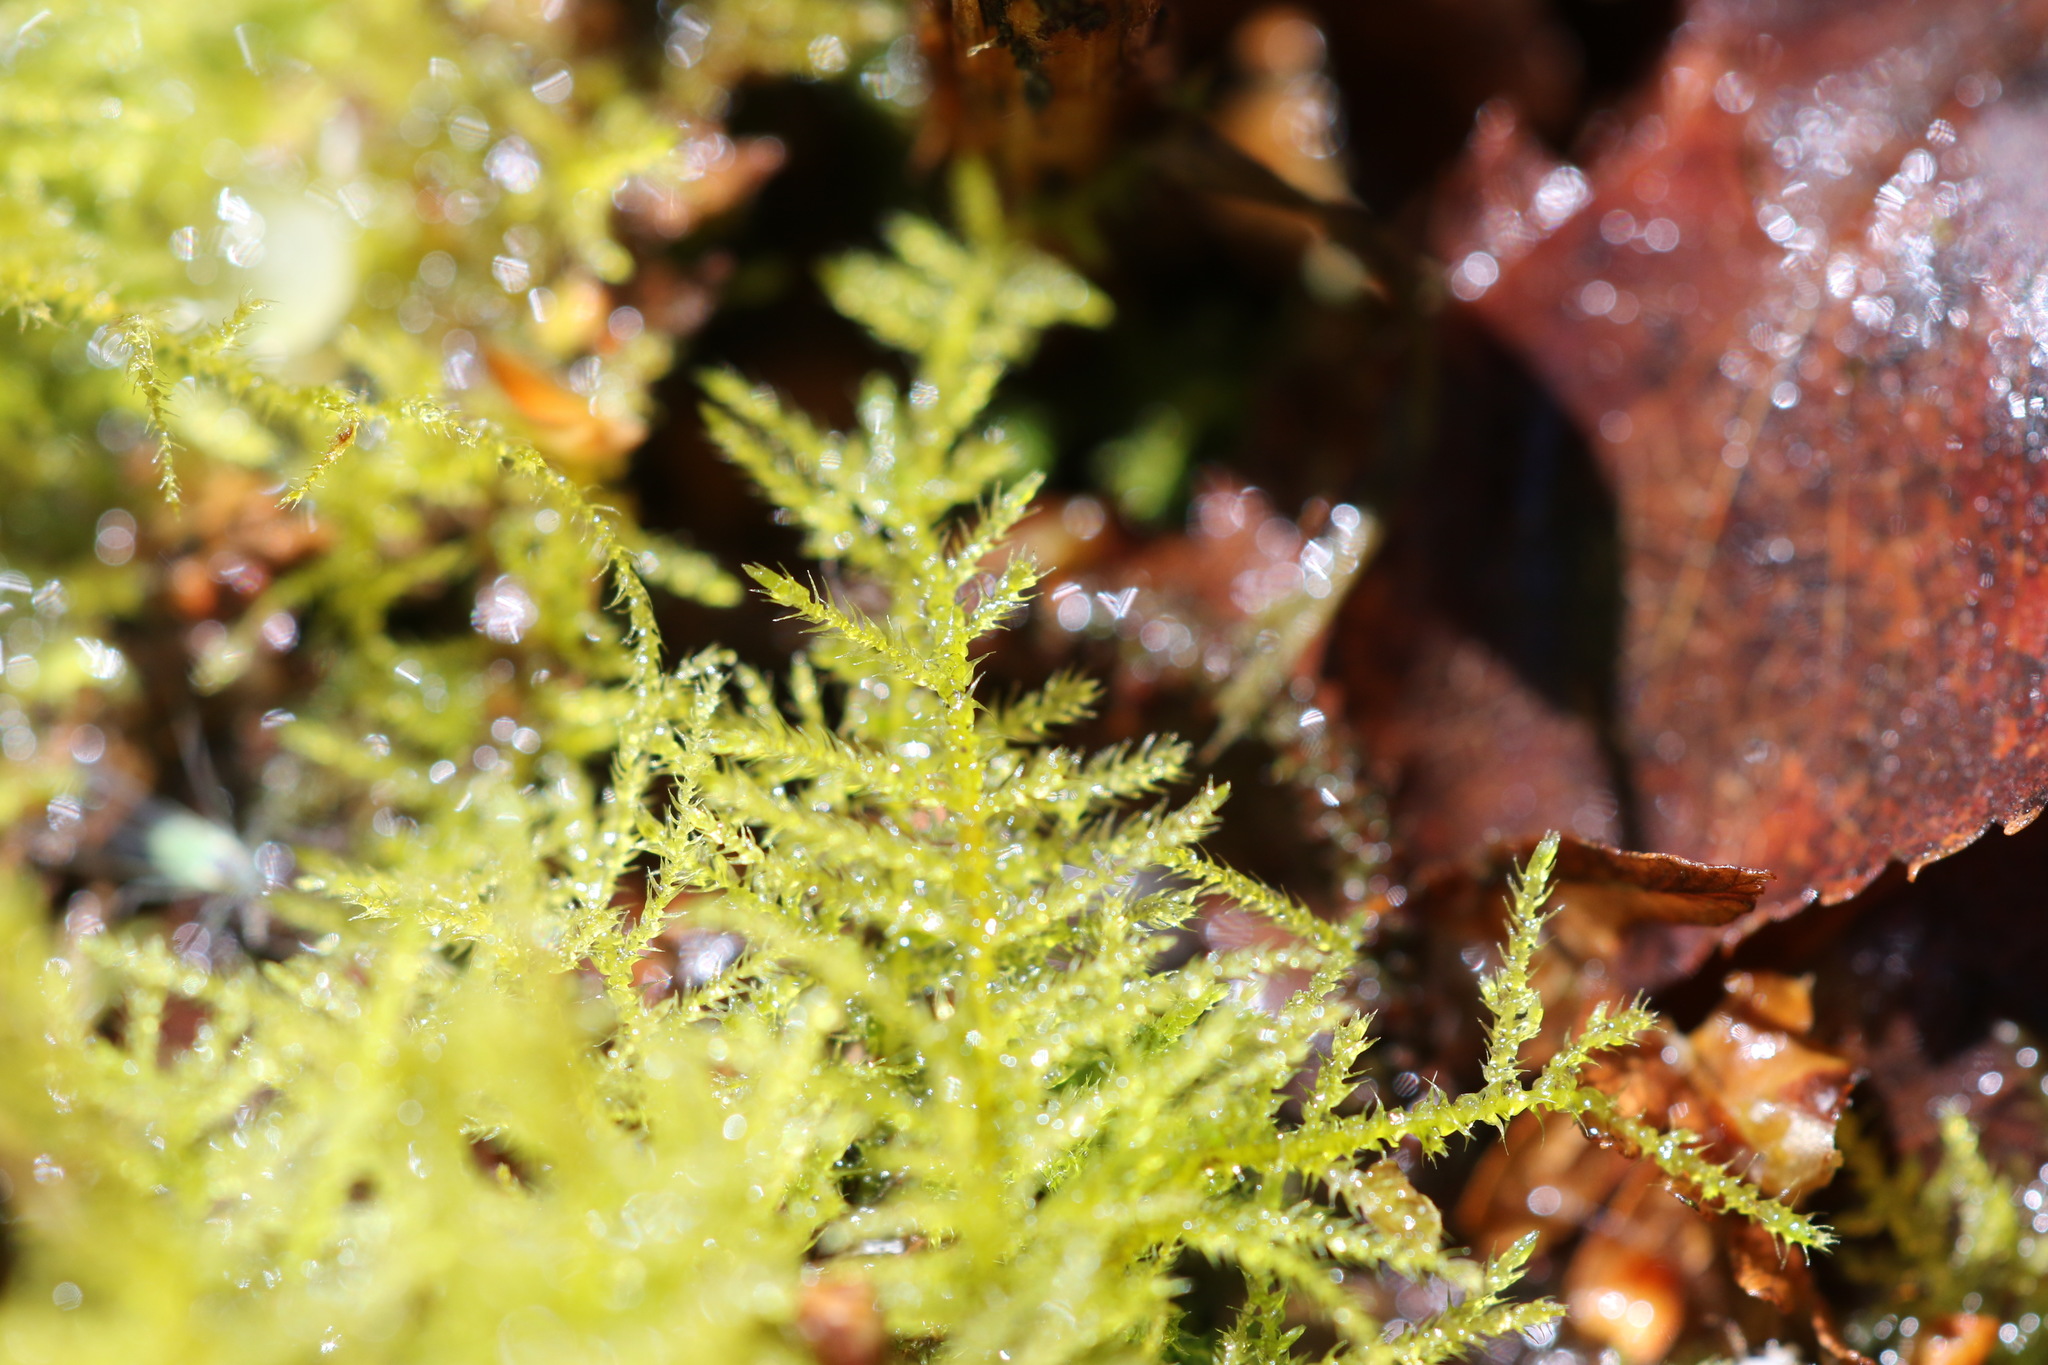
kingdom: Plantae
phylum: Bryophyta
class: Bryopsida
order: Hypnales
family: Brachytheciaceae
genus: Kindbergia
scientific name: Kindbergia praelonga
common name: Slender beaked moss
